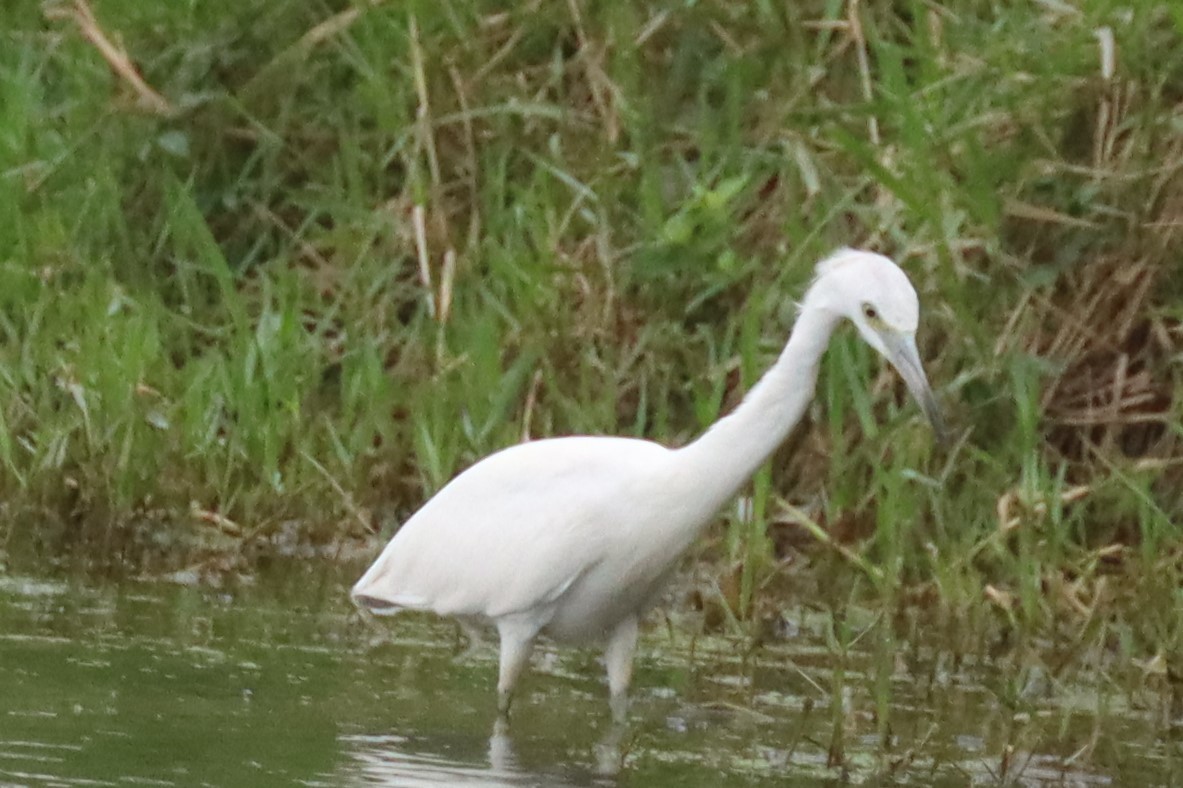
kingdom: Animalia
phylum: Chordata
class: Aves
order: Pelecaniformes
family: Ardeidae
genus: Egretta
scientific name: Egretta caerulea
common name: Little blue heron
